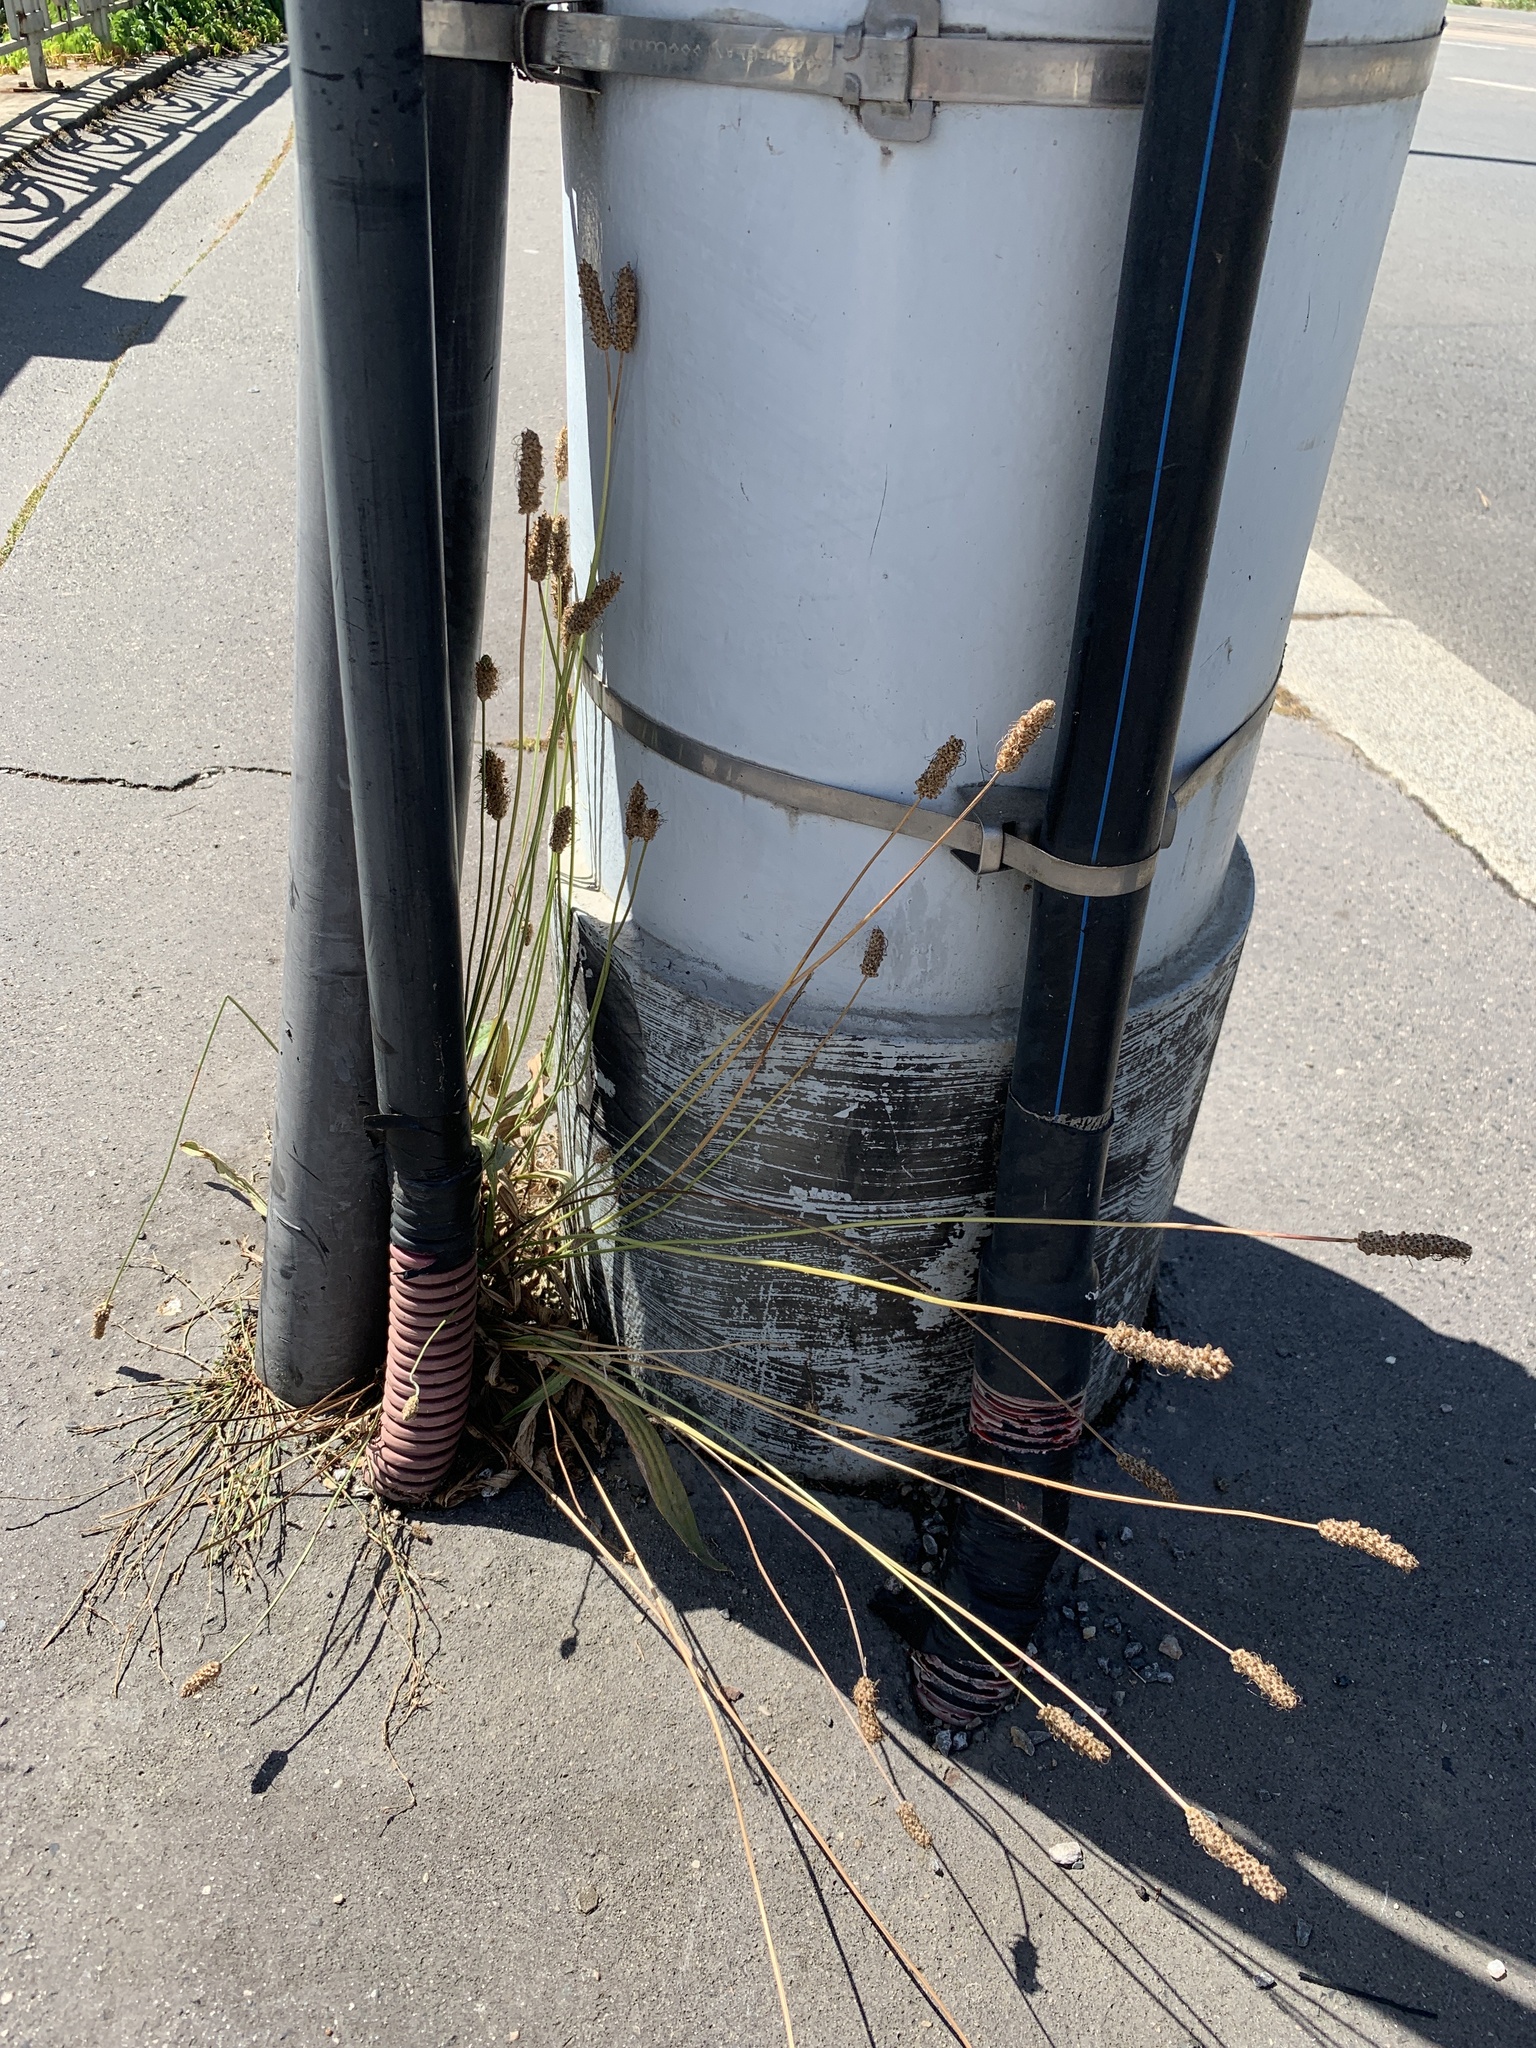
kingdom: Plantae
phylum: Tracheophyta
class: Magnoliopsida
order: Lamiales
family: Plantaginaceae
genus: Plantago
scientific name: Plantago lanceolata
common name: Ribwort plantain
